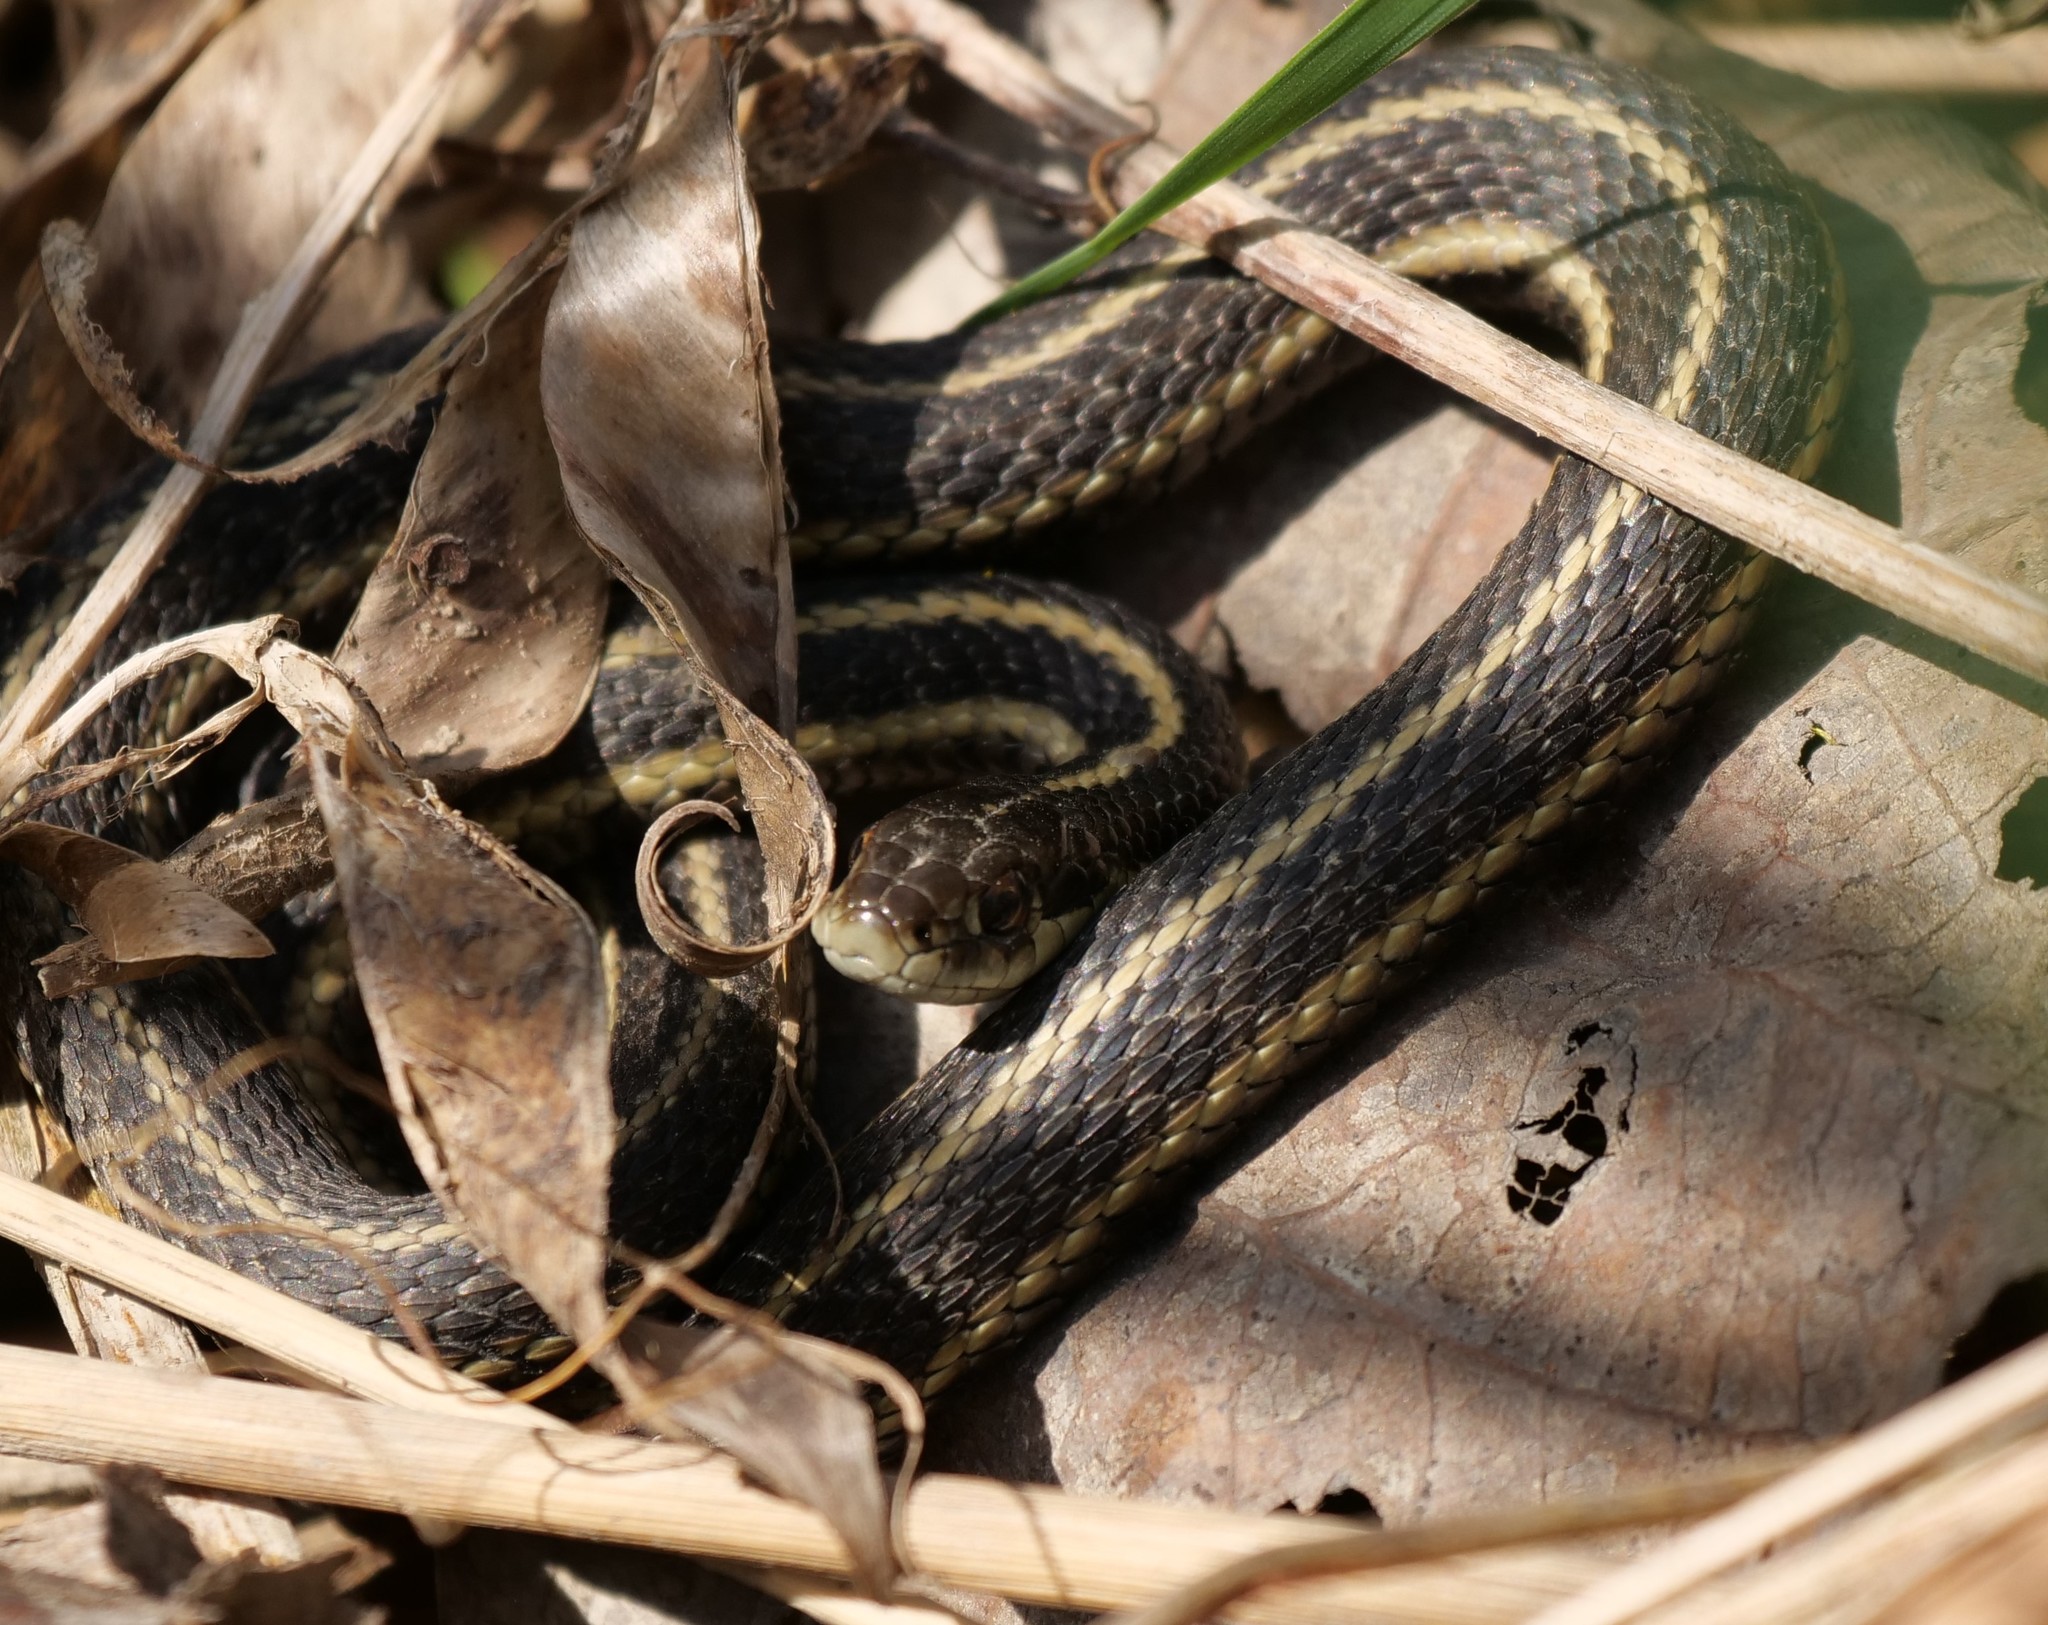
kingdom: Animalia
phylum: Chordata
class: Squamata
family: Colubridae
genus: Thamnophis
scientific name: Thamnophis ordinoides
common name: Northwestern garter snake
